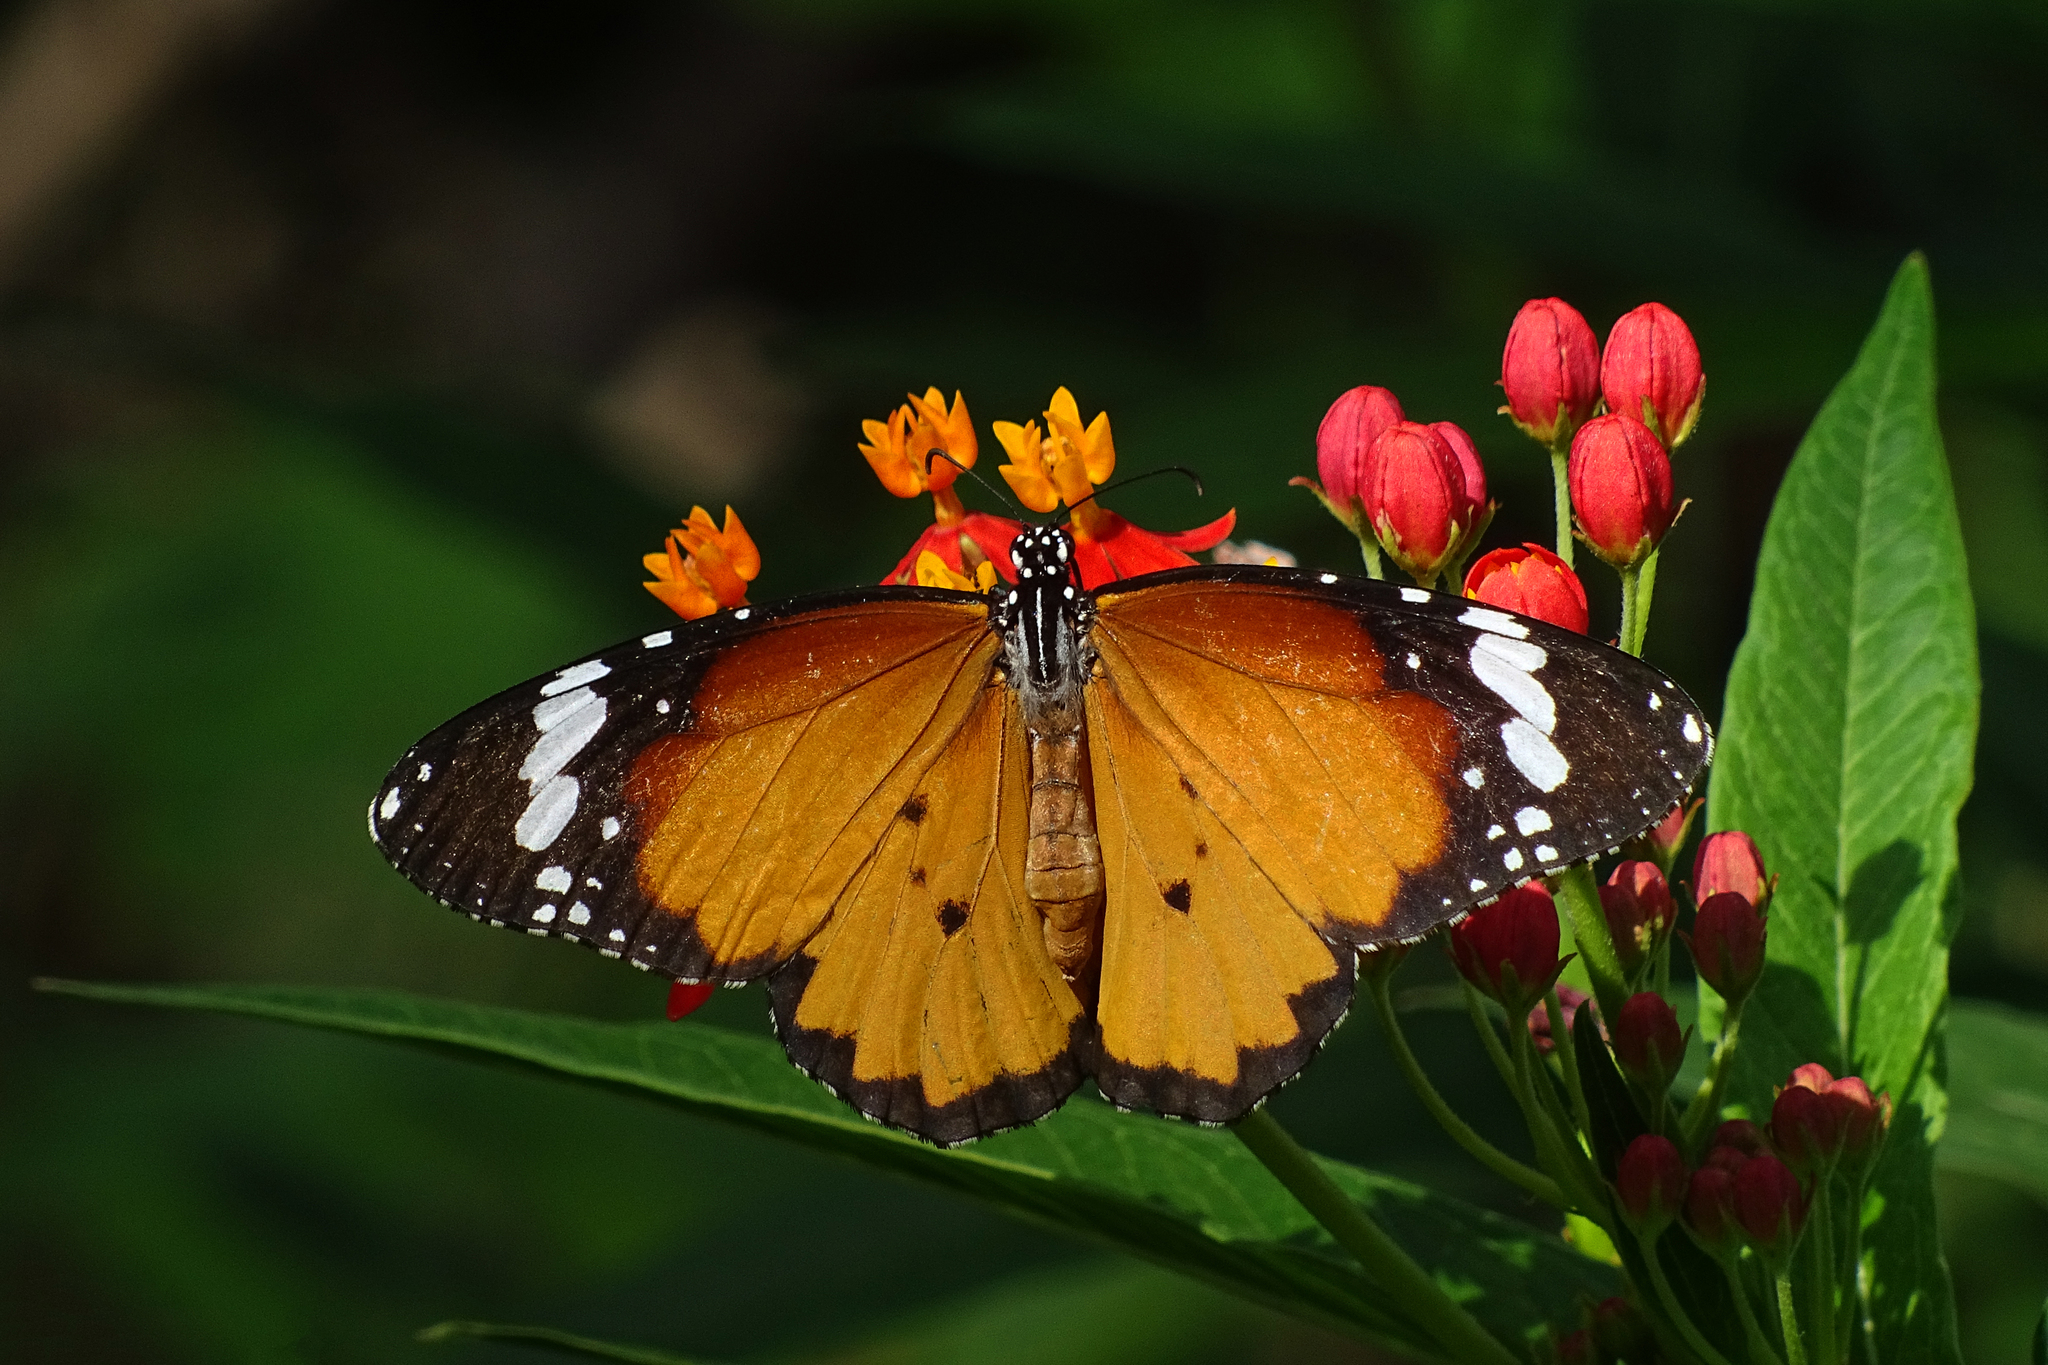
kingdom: Animalia
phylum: Arthropoda
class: Insecta
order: Lepidoptera
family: Nymphalidae
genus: Danaus
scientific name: Danaus chrysippus
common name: Plain tiger
